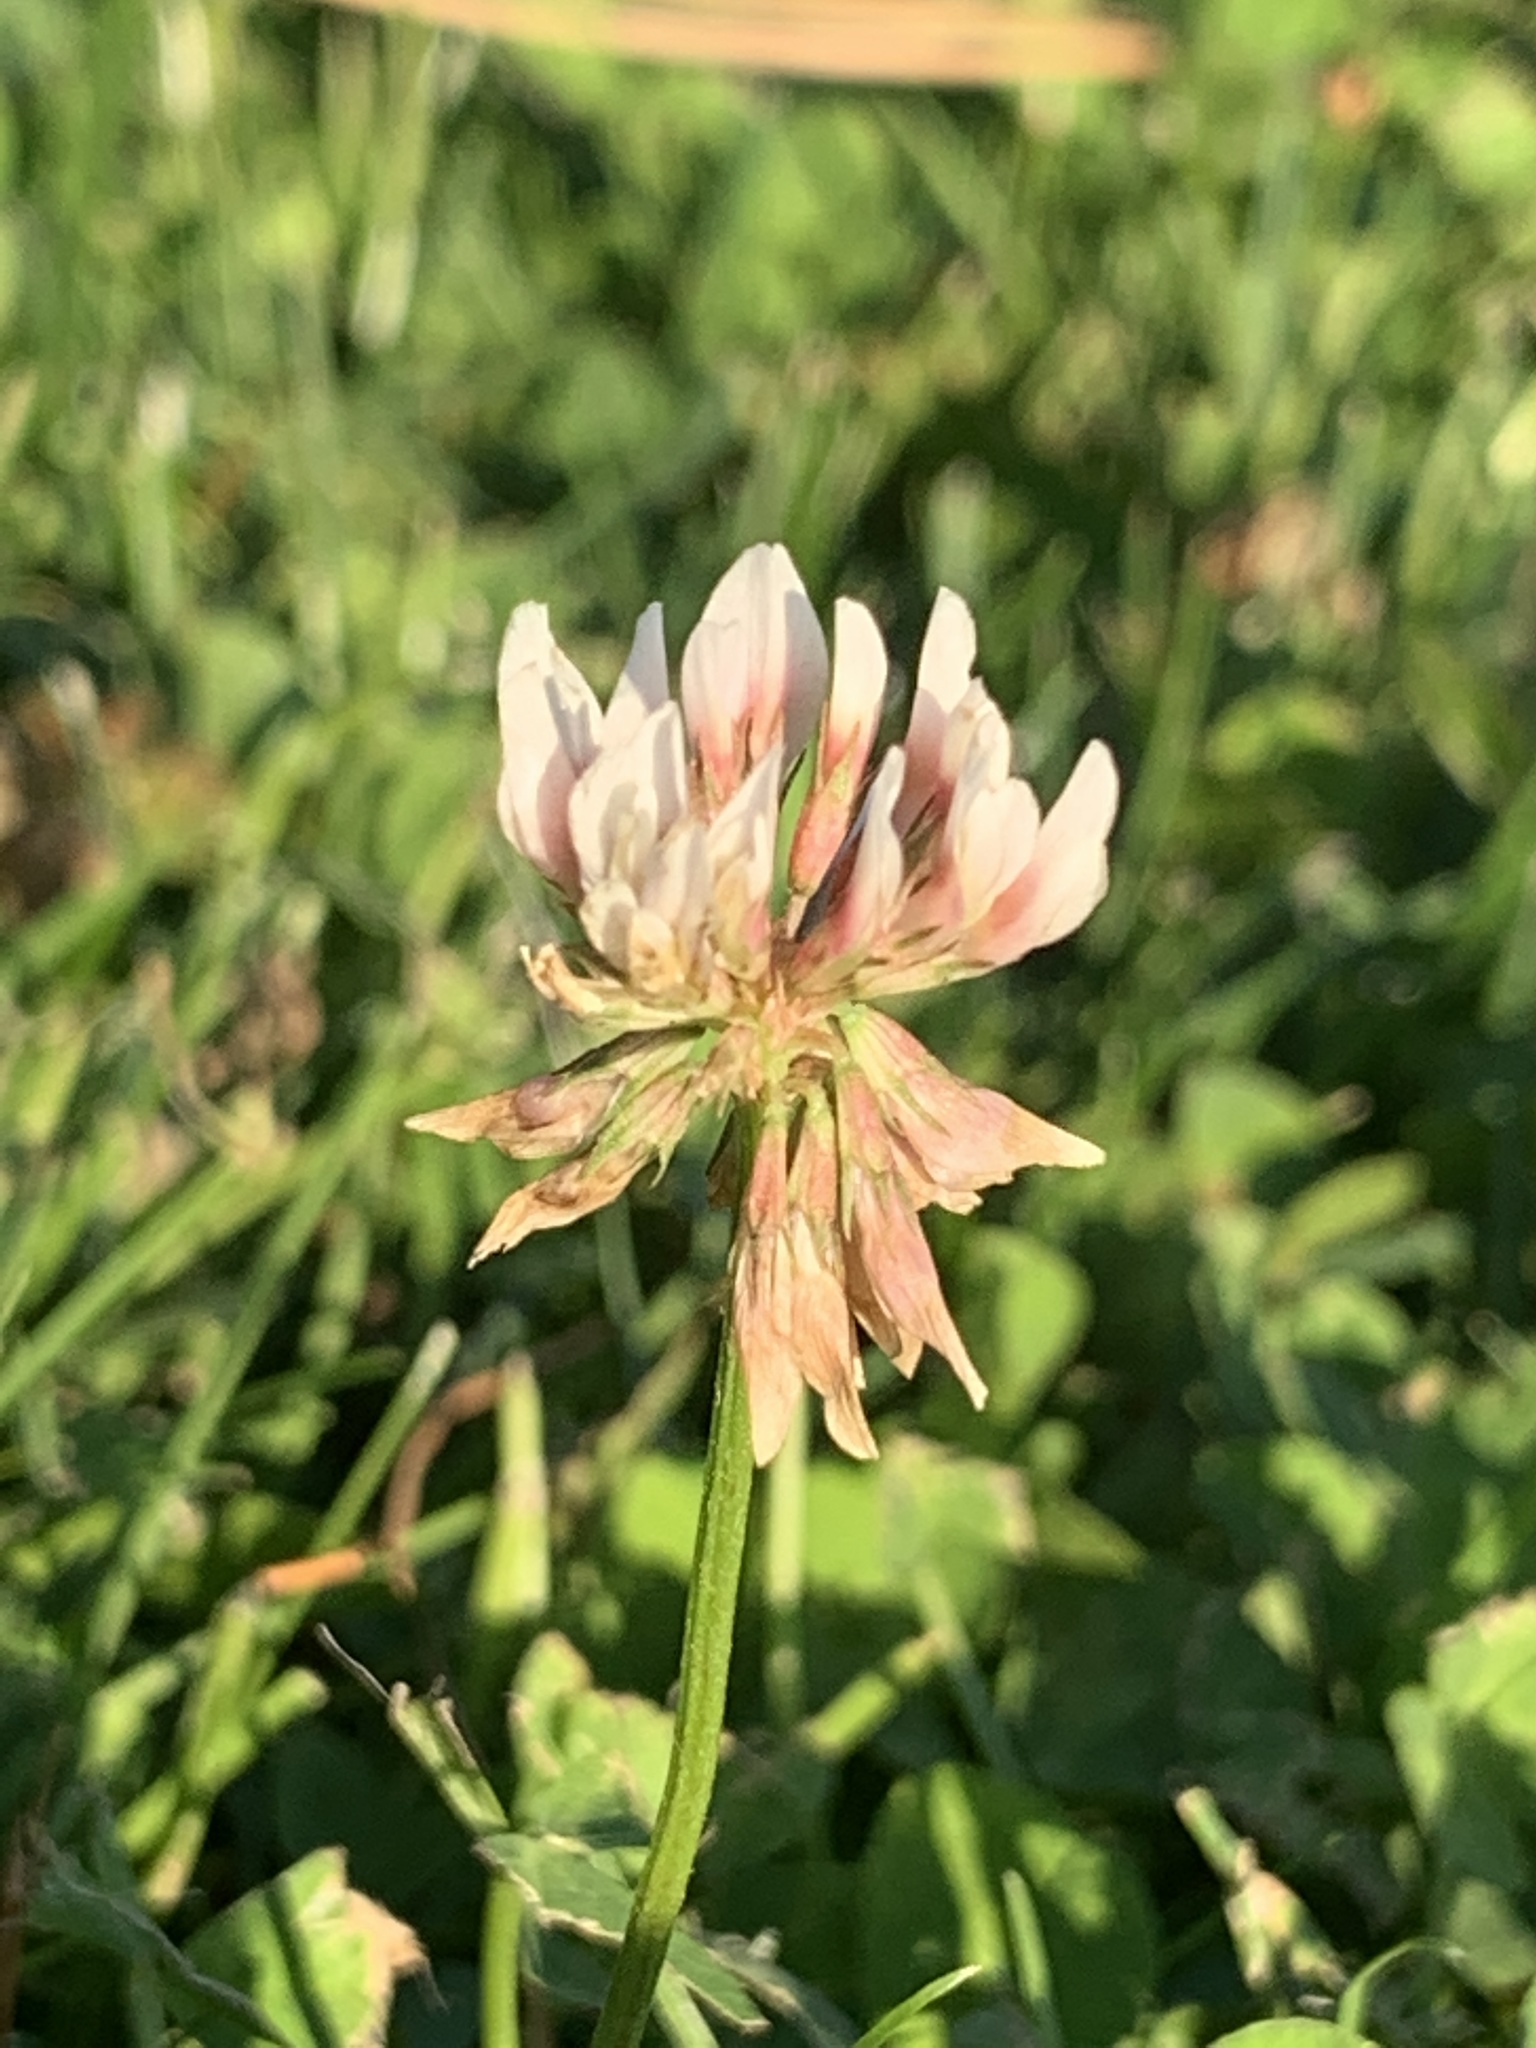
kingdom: Plantae
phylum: Tracheophyta
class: Magnoliopsida
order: Fabales
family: Fabaceae
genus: Trifolium
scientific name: Trifolium repens
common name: White clover
